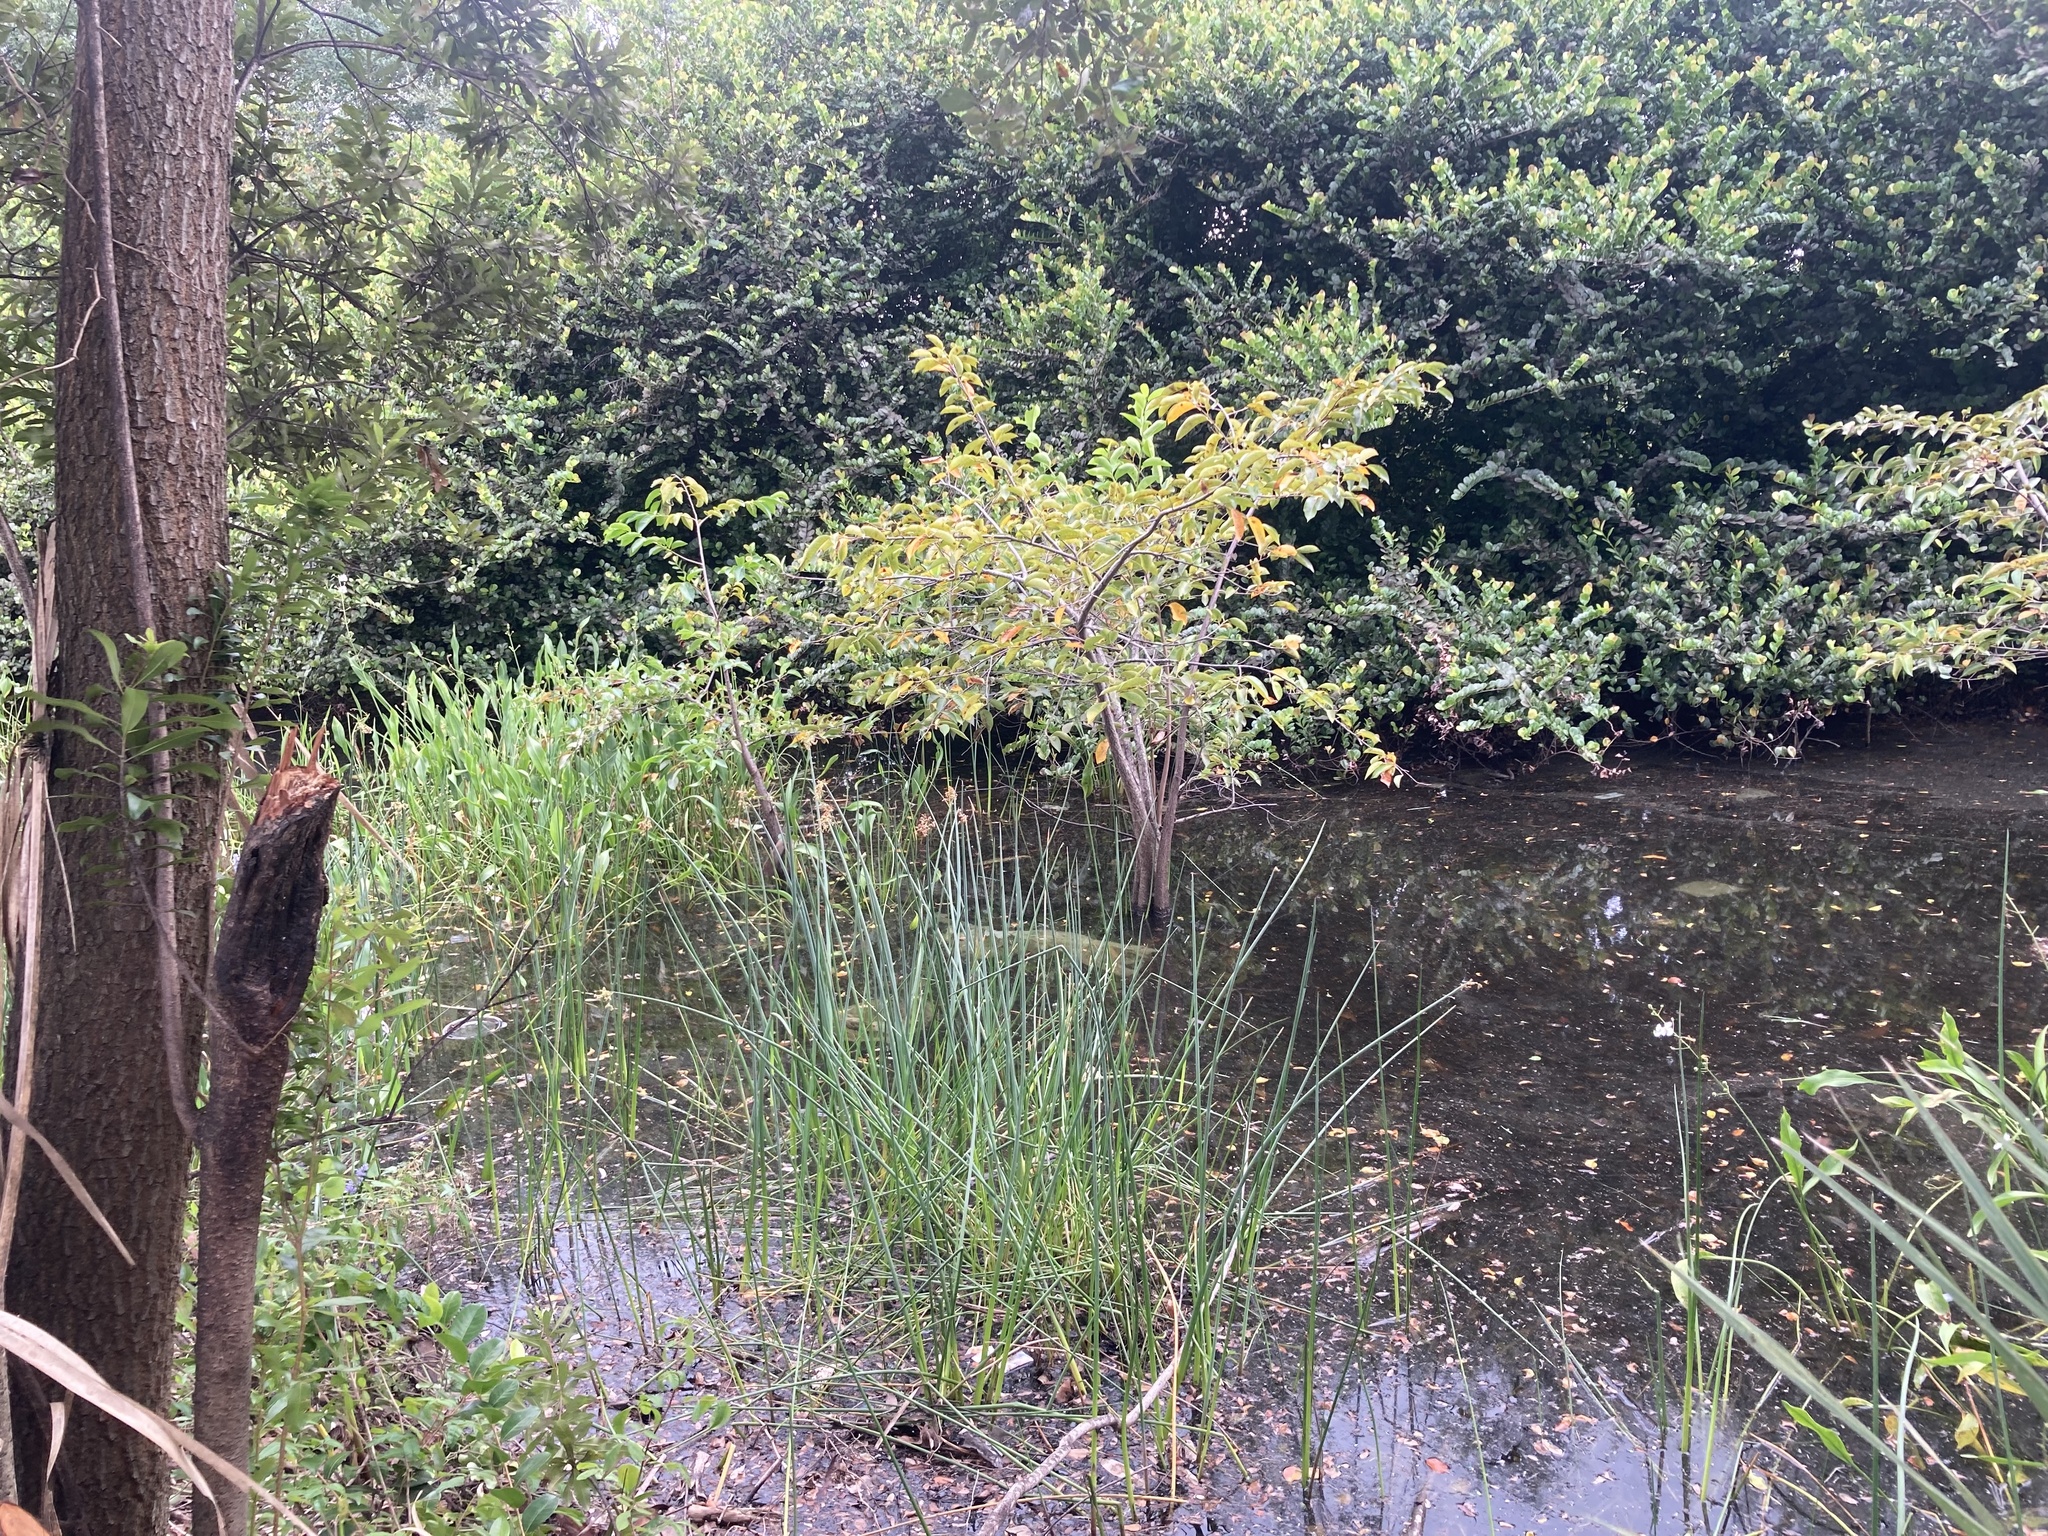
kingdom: Plantae
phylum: Tracheophyta
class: Magnoliopsida
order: Magnoliales
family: Annonaceae
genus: Annona
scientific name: Annona glabra
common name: Monkey apple
